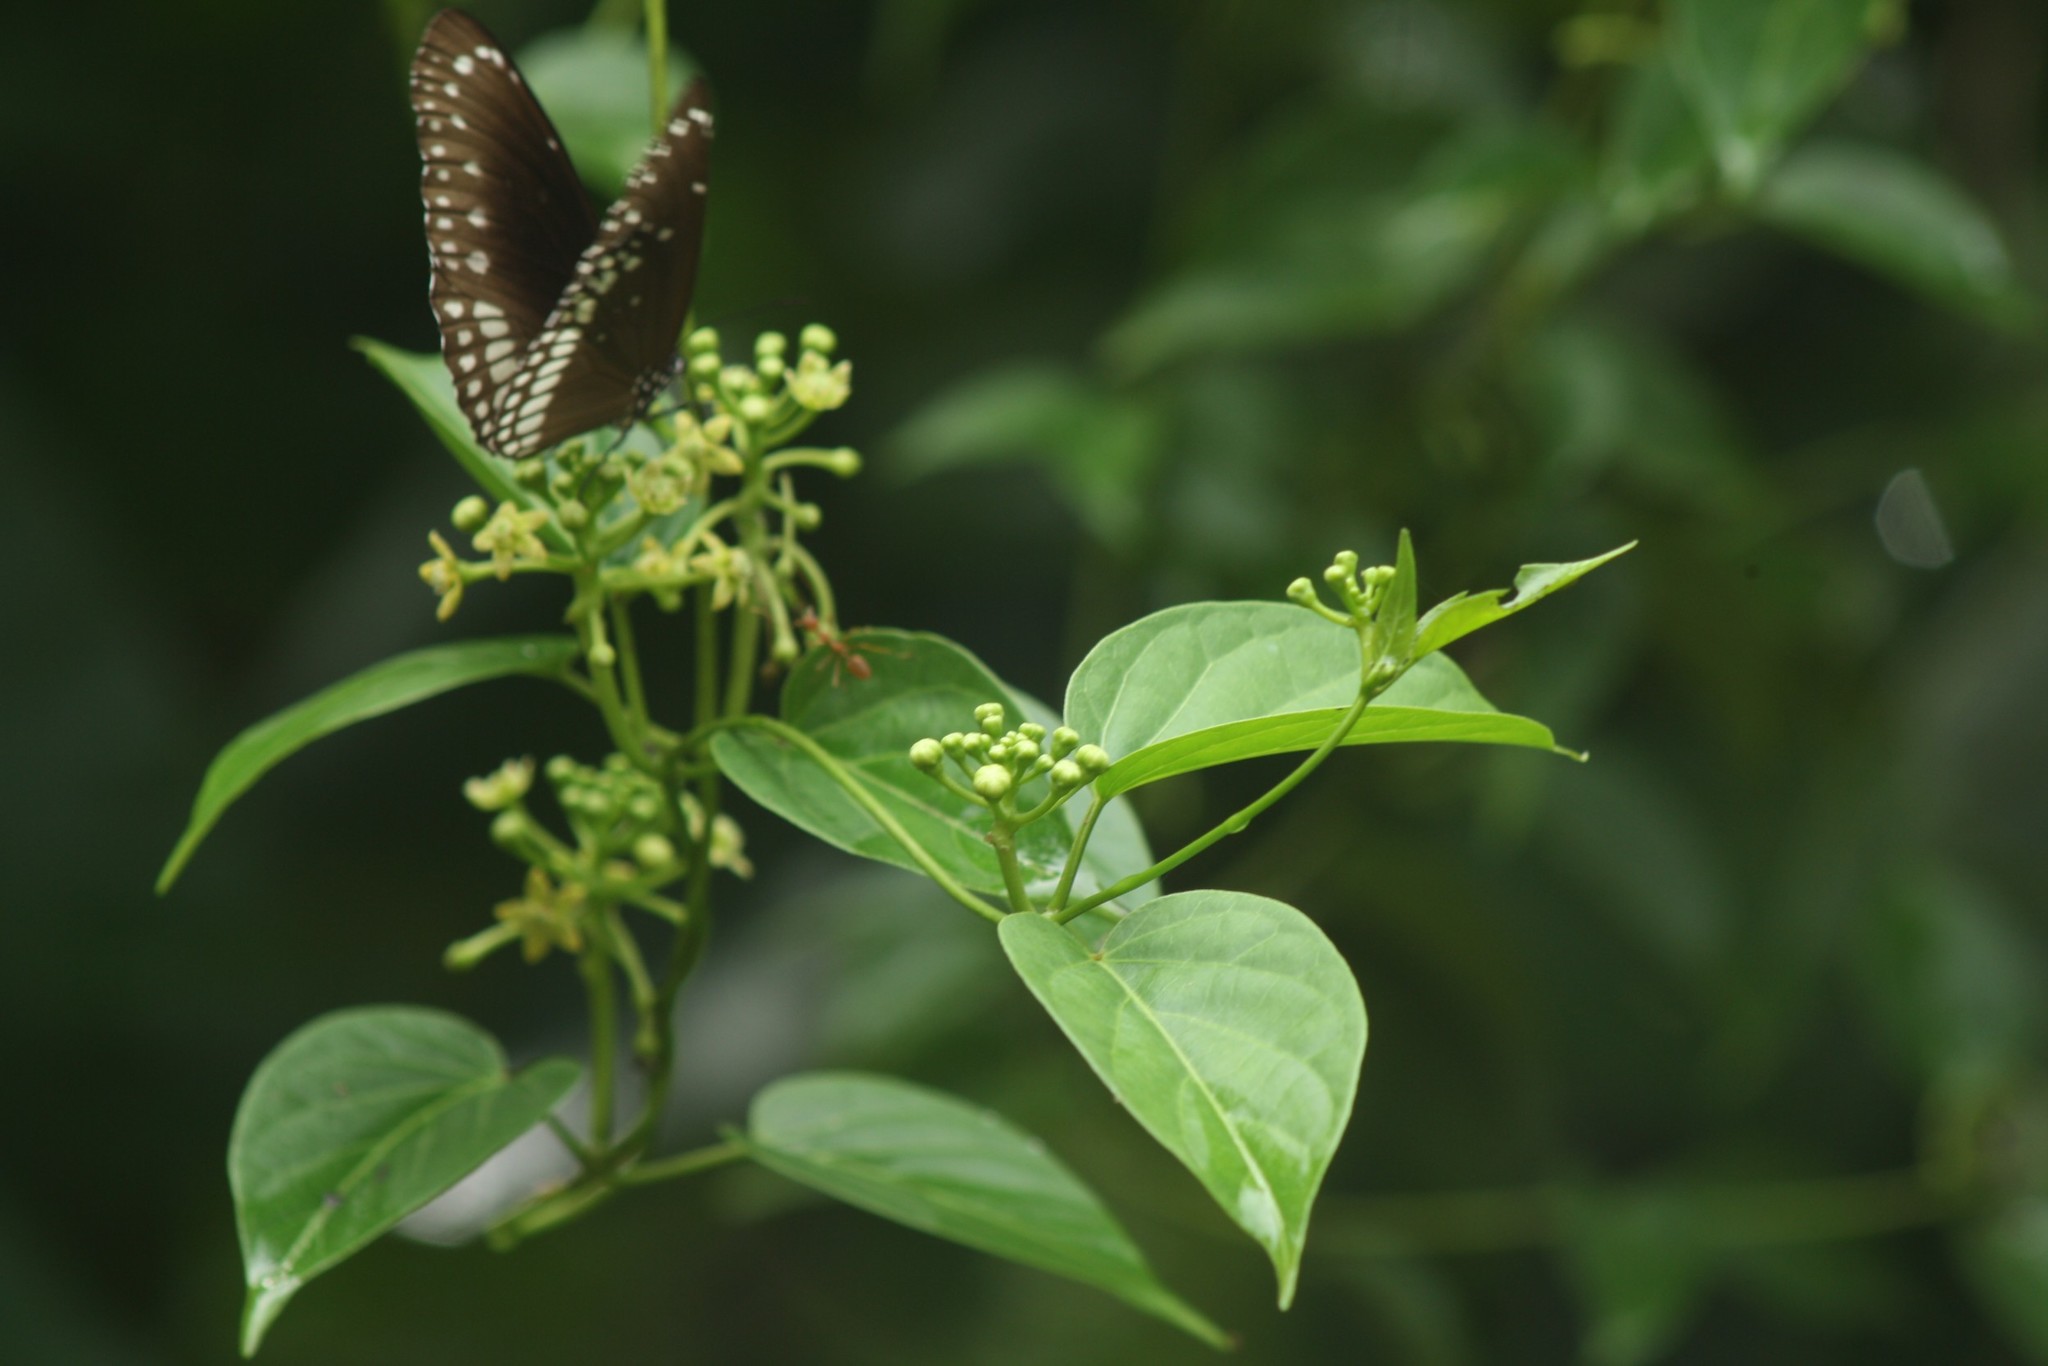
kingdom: Animalia
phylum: Arthropoda
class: Insecta
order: Lepidoptera
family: Nymphalidae
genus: Euploea
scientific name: Euploea core
